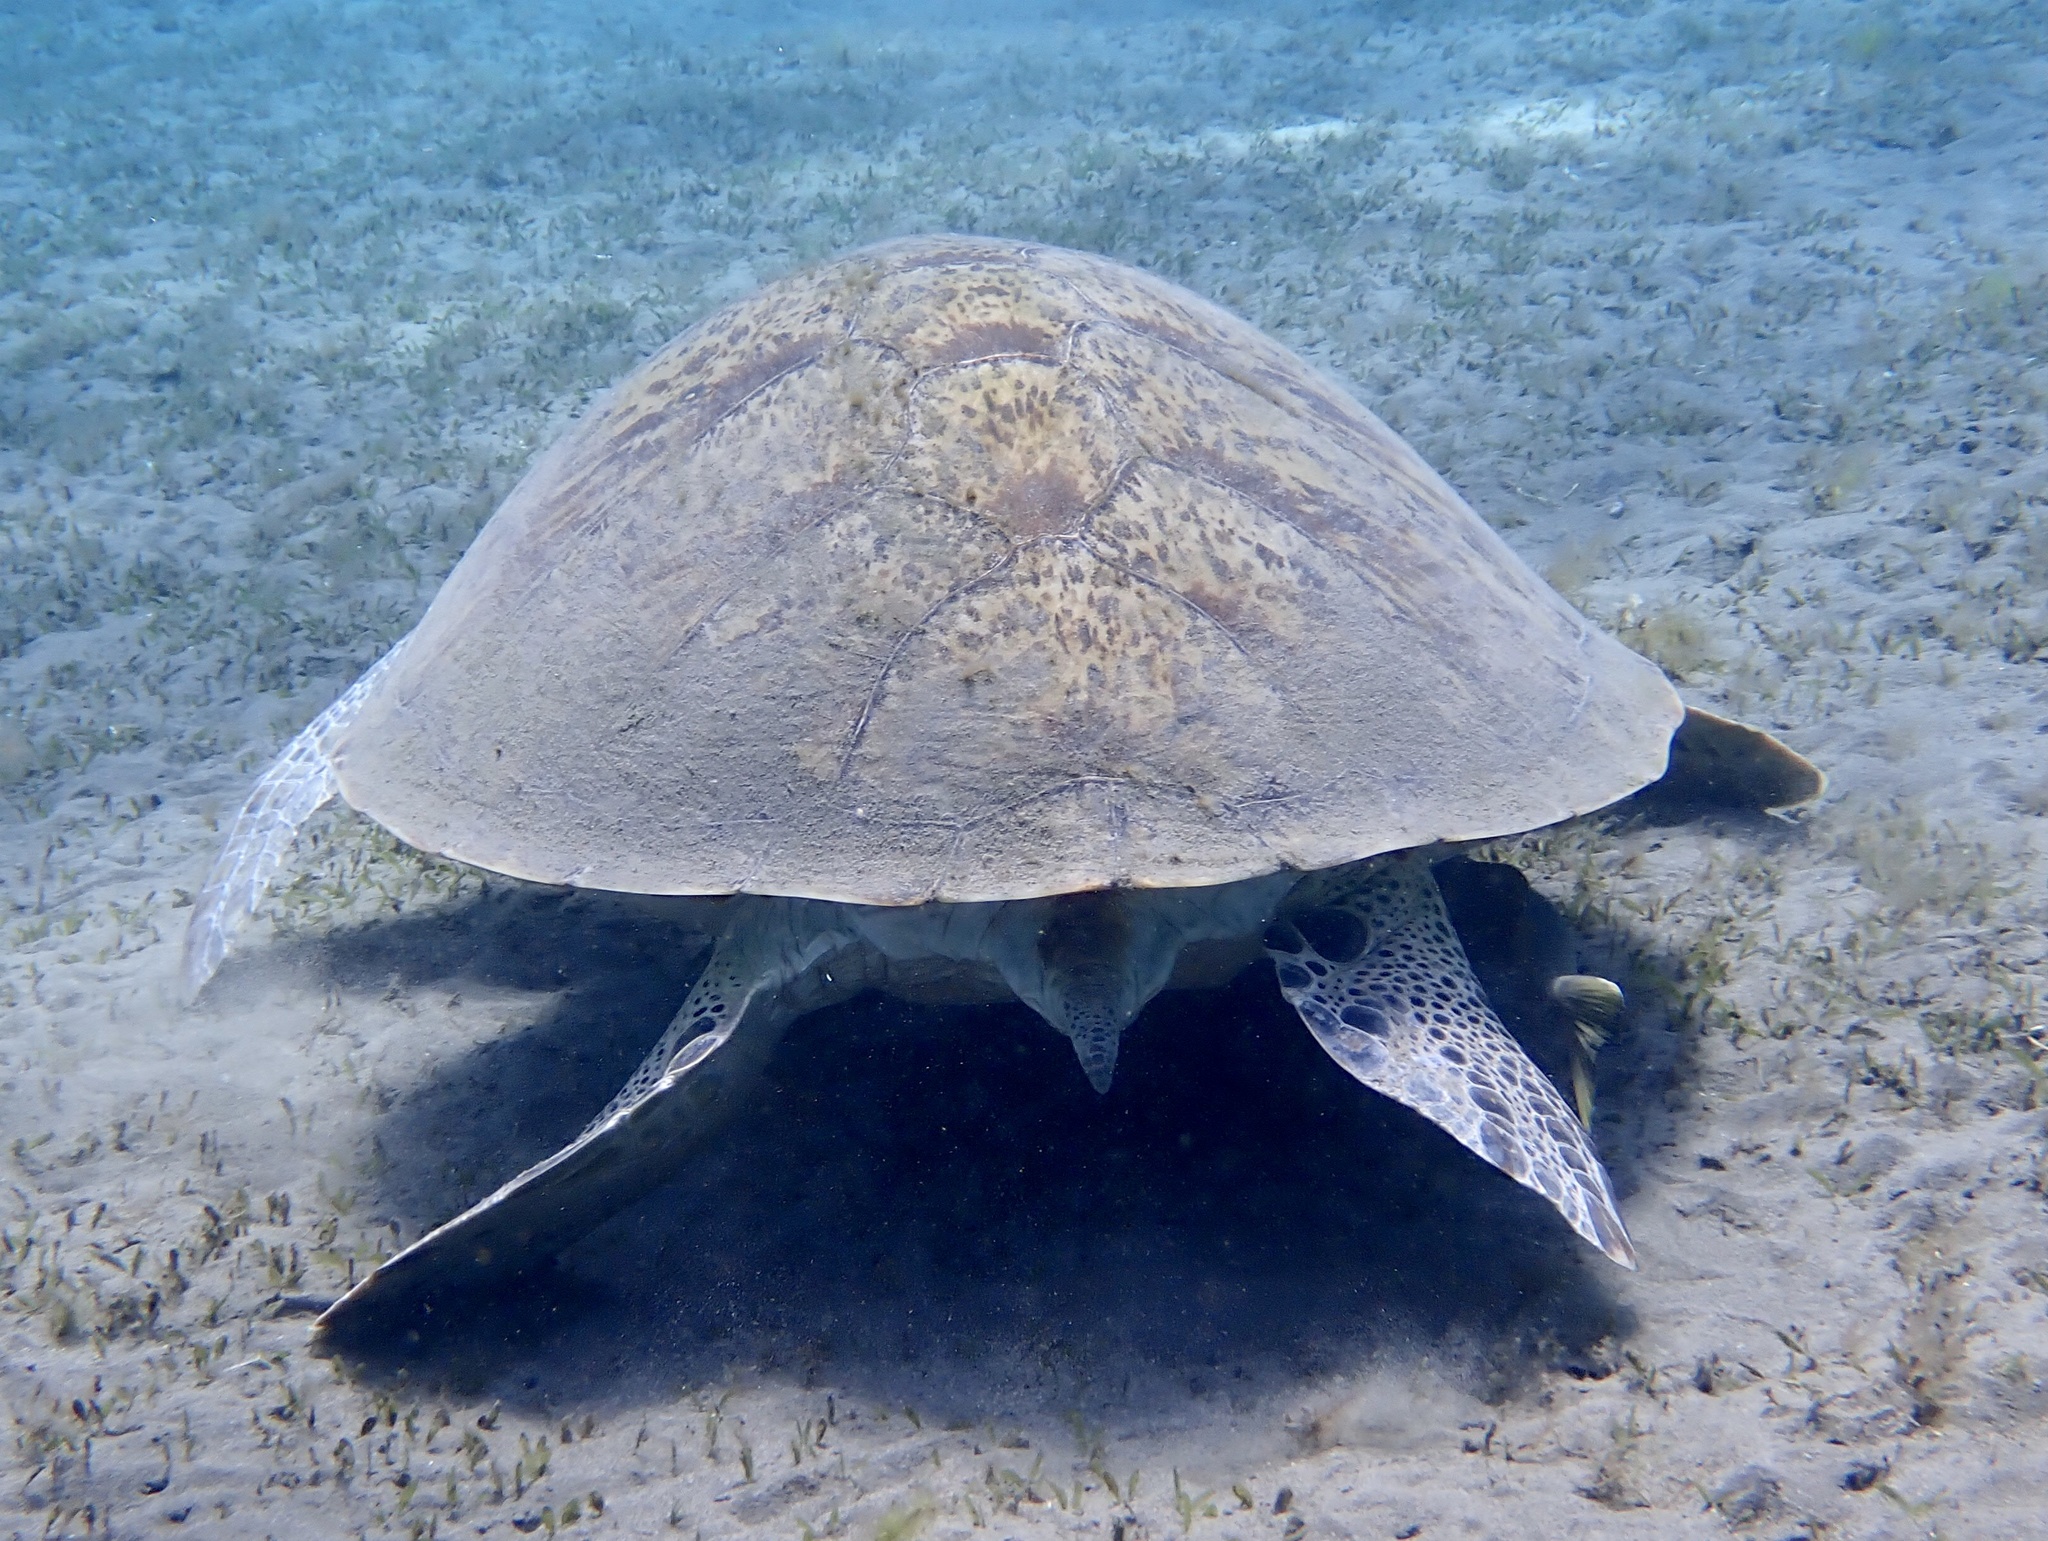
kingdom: Animalia
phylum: Chordata
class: Testudines
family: Cheloniidae
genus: Chelonia
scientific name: Chelonia mydas
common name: Green turtle
